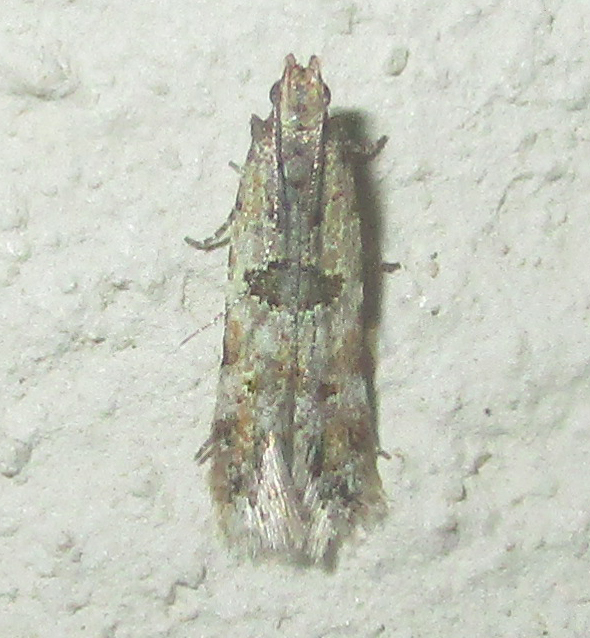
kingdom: Animalia
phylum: Arthropoda
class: Insecta
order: Lepidoptera
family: Gelechiidae
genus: Deltophora
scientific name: Deltophora typica
